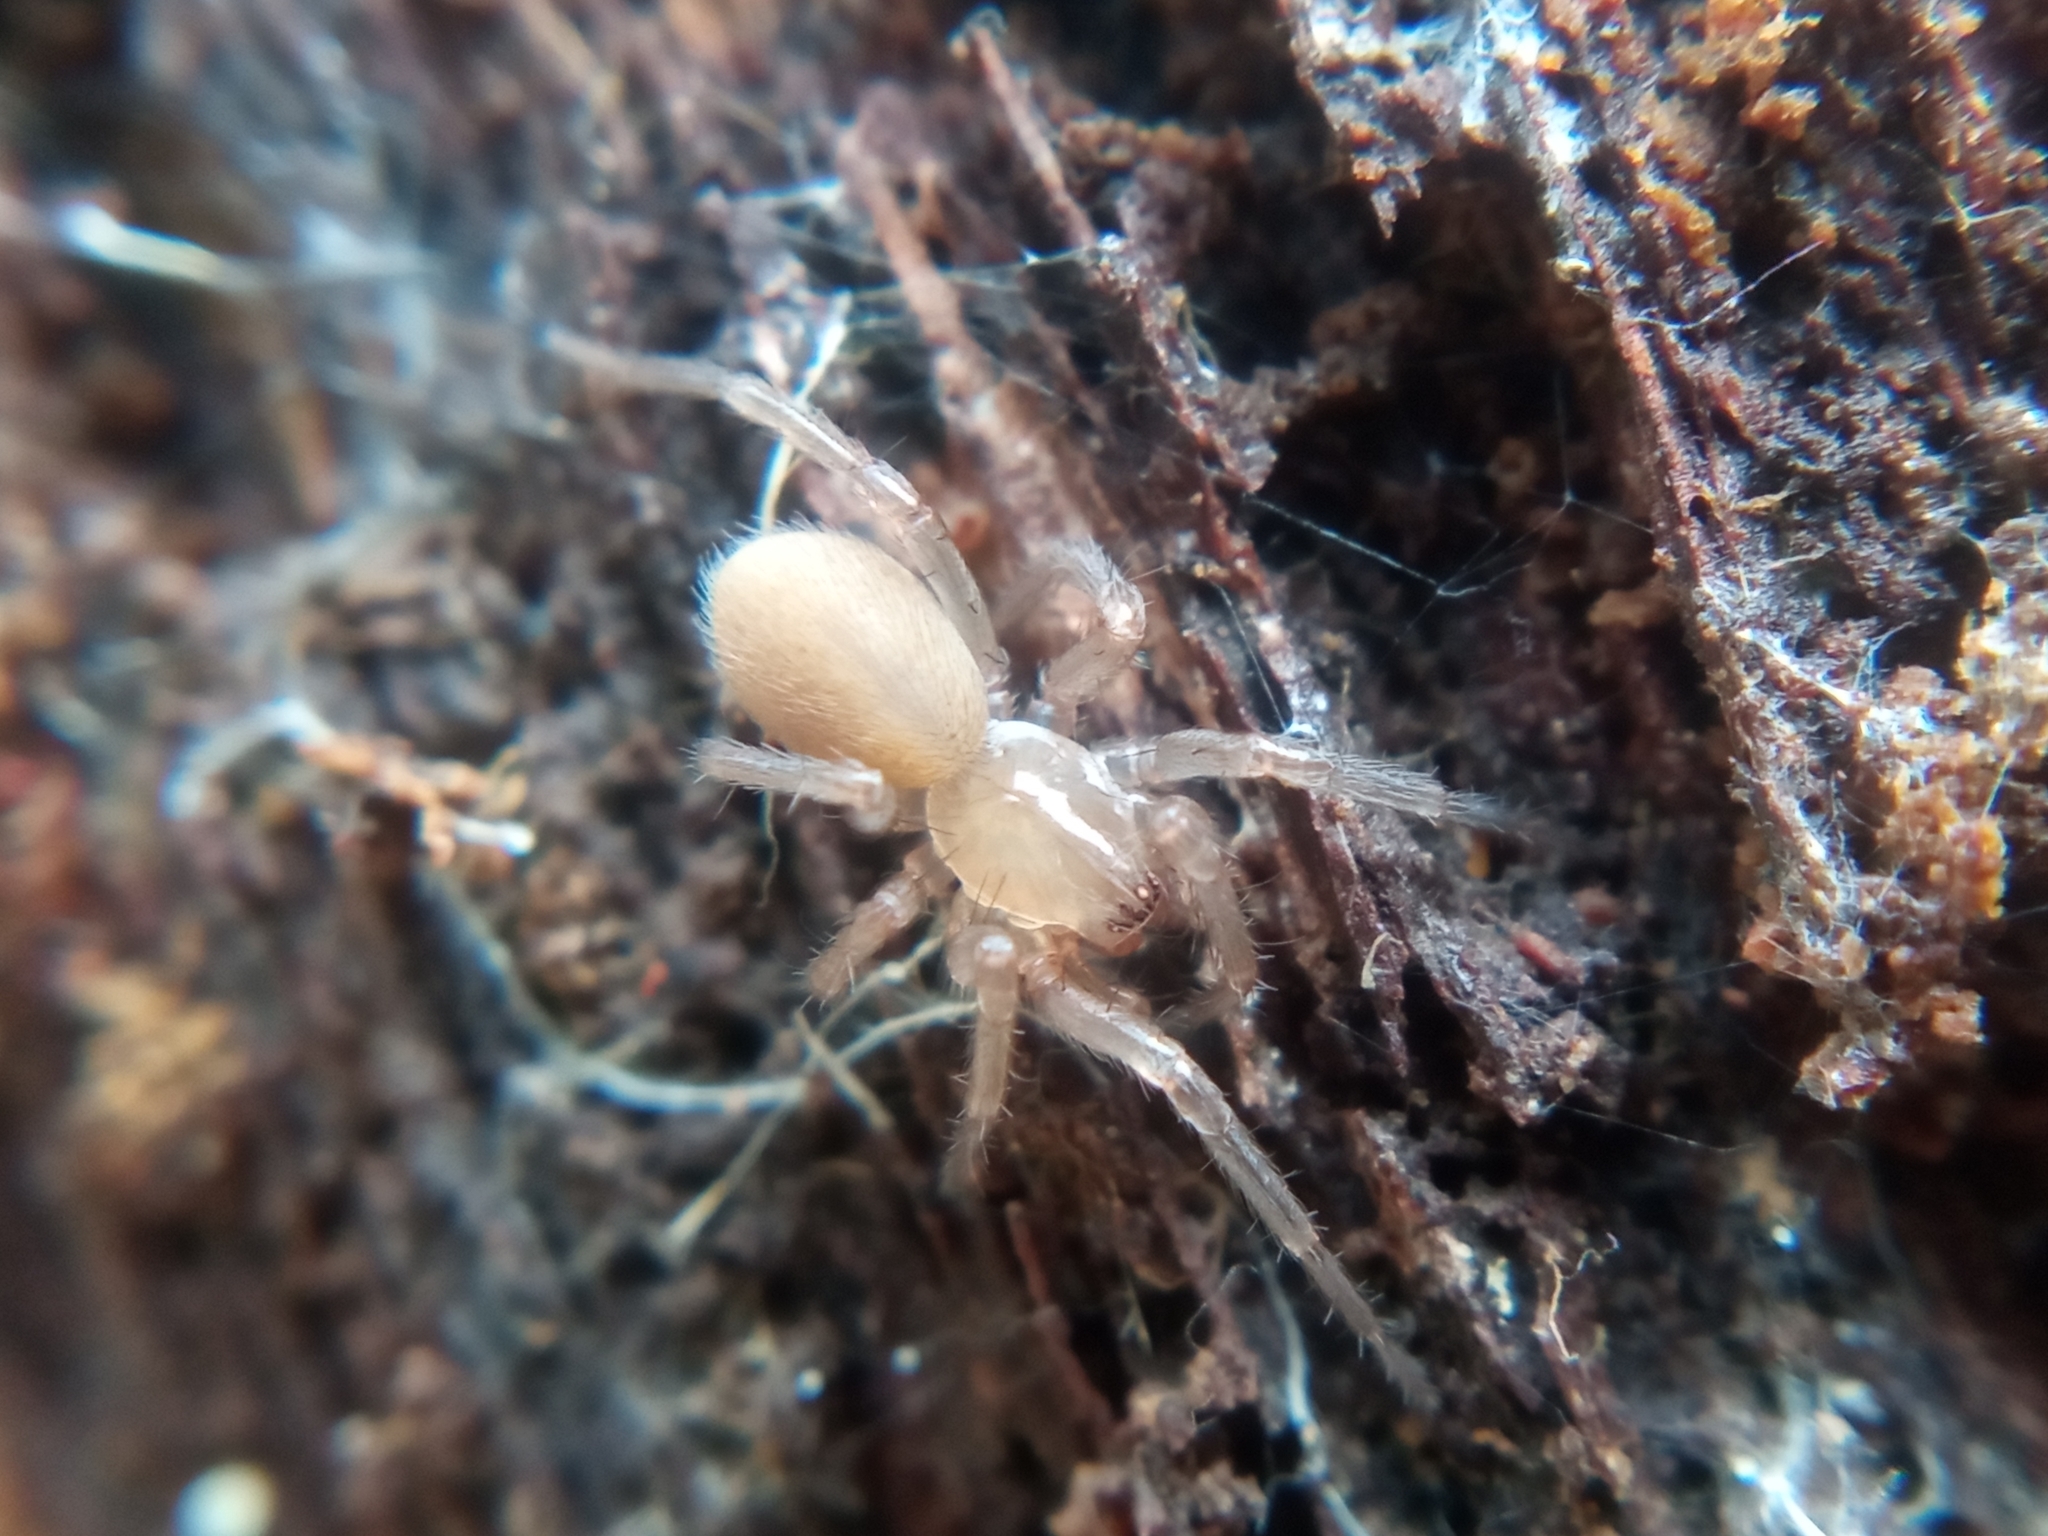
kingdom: Animalia
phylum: Arthropoda
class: Arachnida
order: Araneae
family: Hahniidae
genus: Cicurina
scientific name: Cicurina cicur
